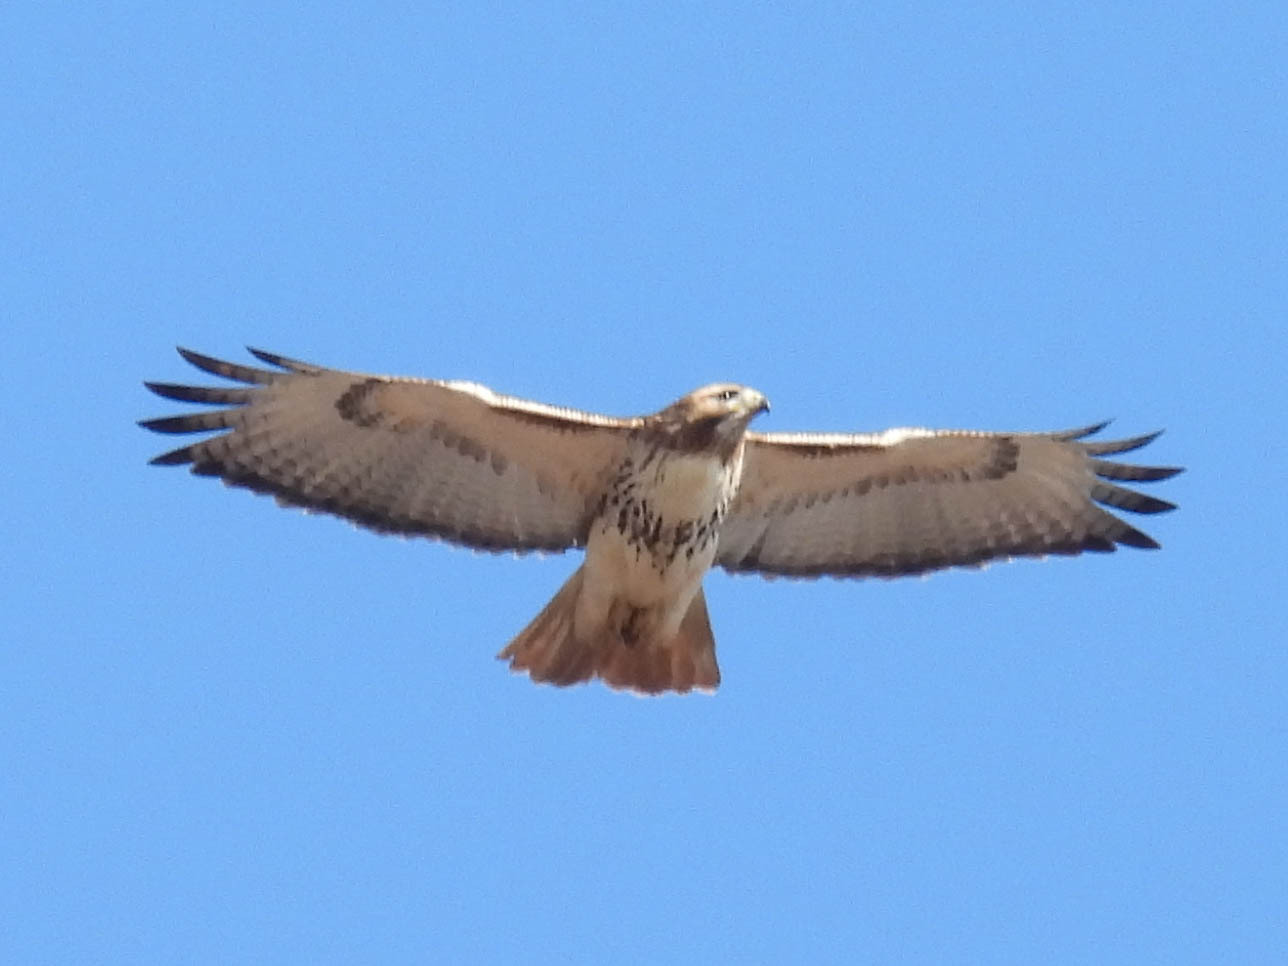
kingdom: Animalia
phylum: Chordata
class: Aves
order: Accipitriformes
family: Accipitridae
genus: Buteo
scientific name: Buteo jamaicensis
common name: Red-tailed hawk
